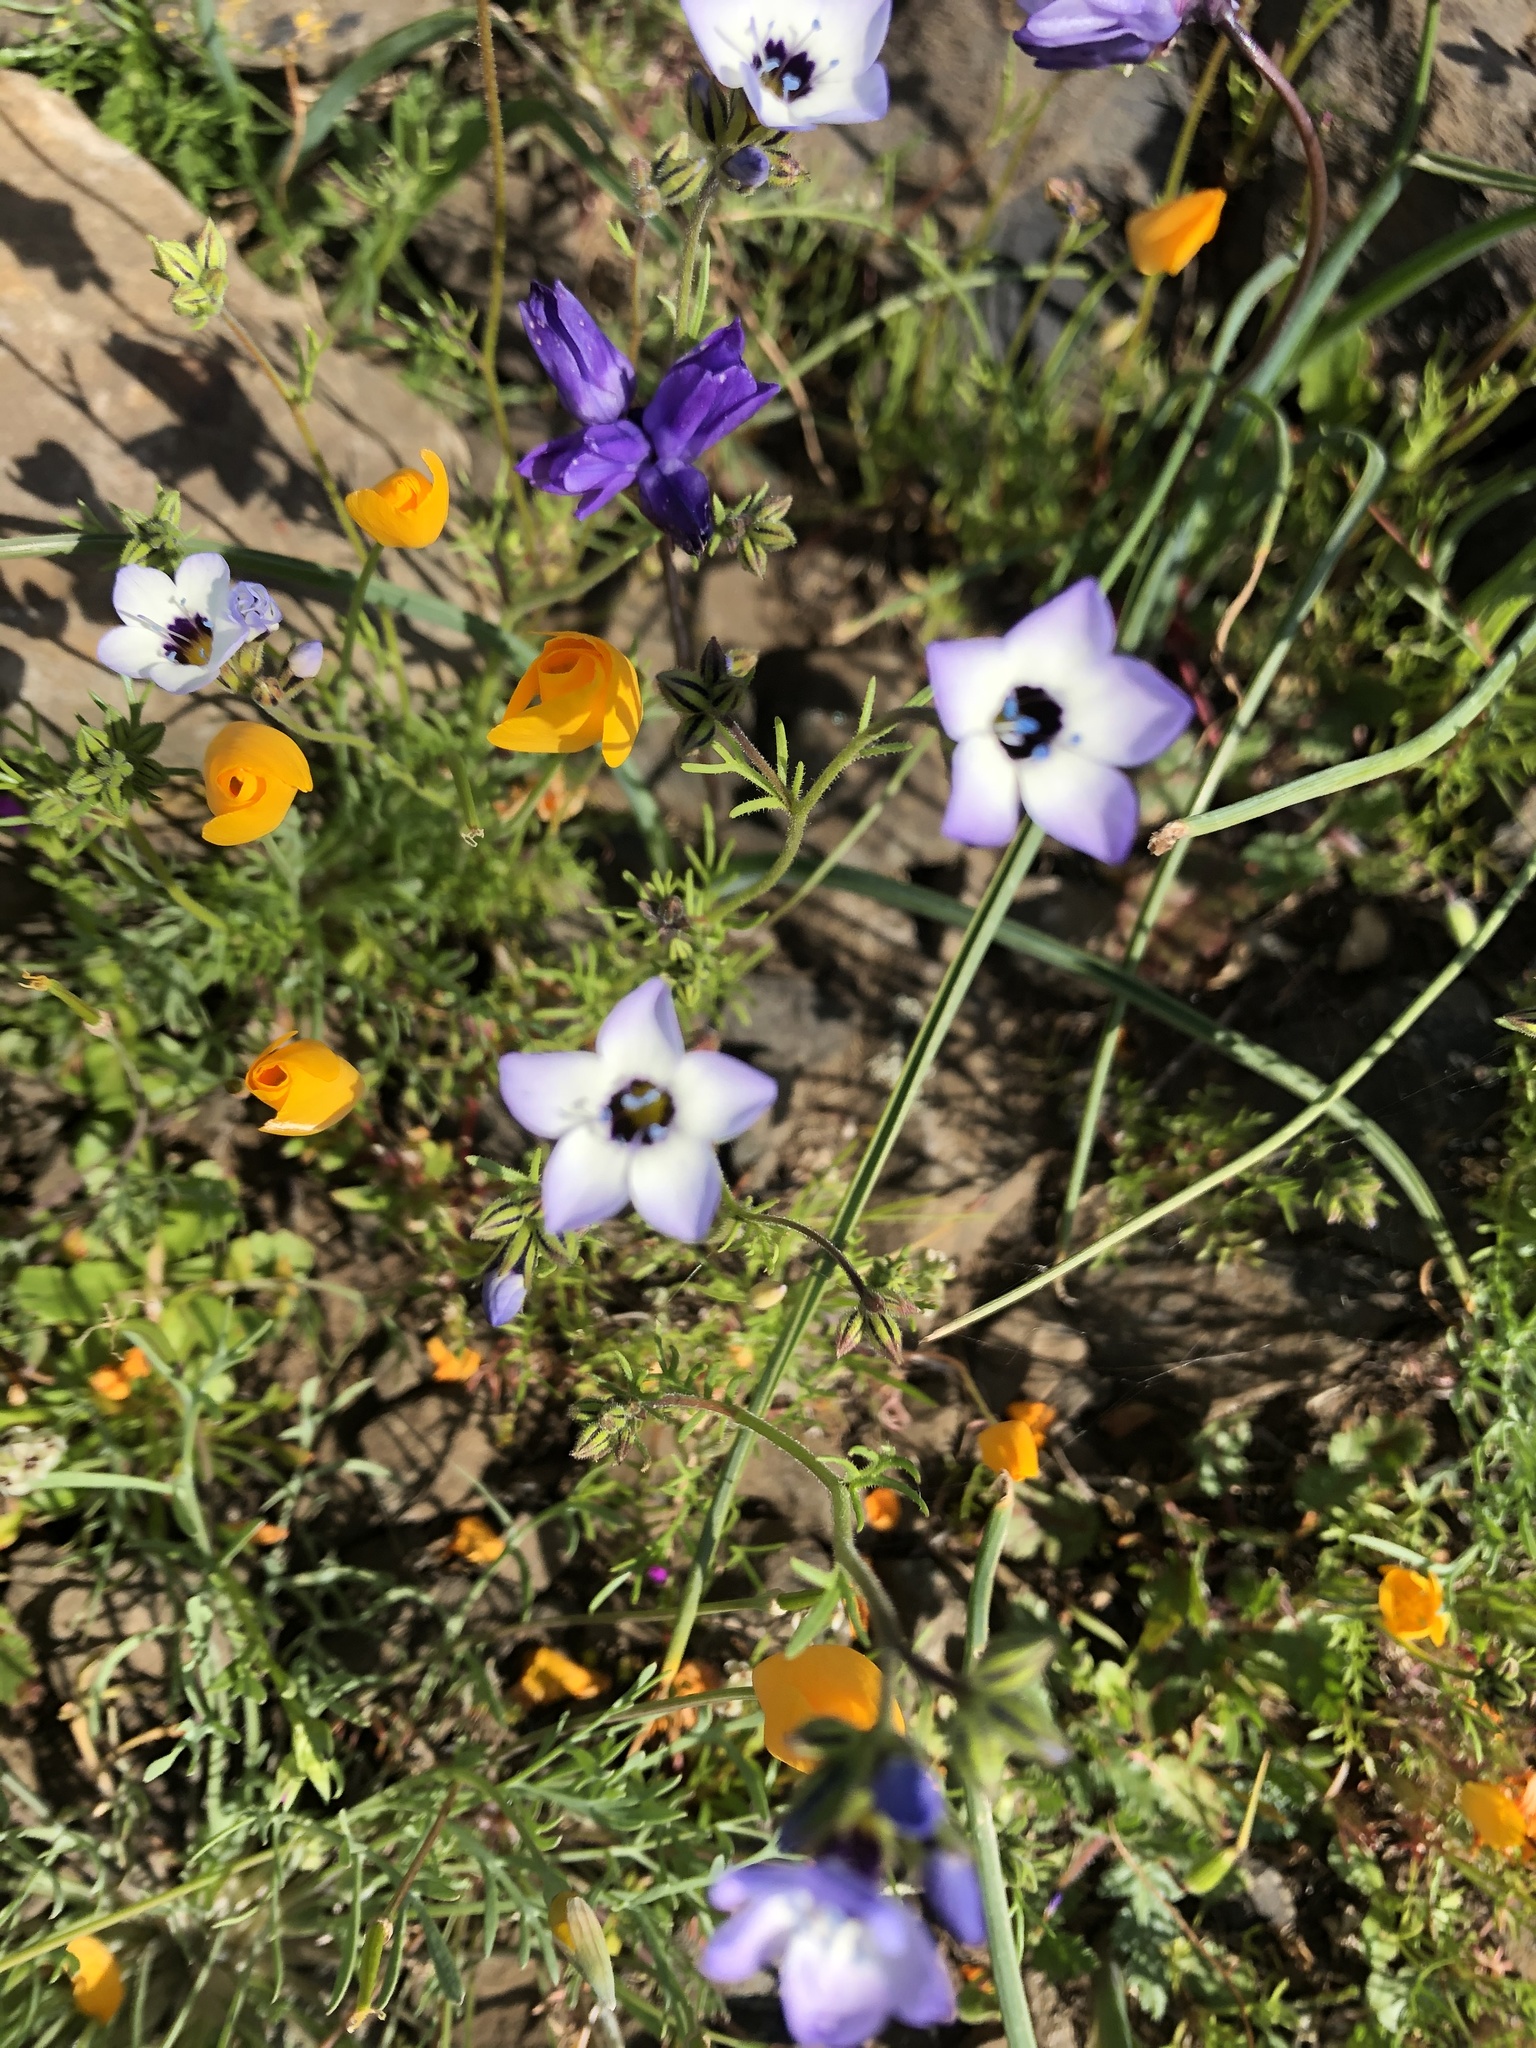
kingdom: Plantae
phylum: Tracheophyta
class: Magnoliopsida
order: Ericales
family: Polemoniaceae
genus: Gilia
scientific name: Gilia tricolor
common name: Bird's-eyes
